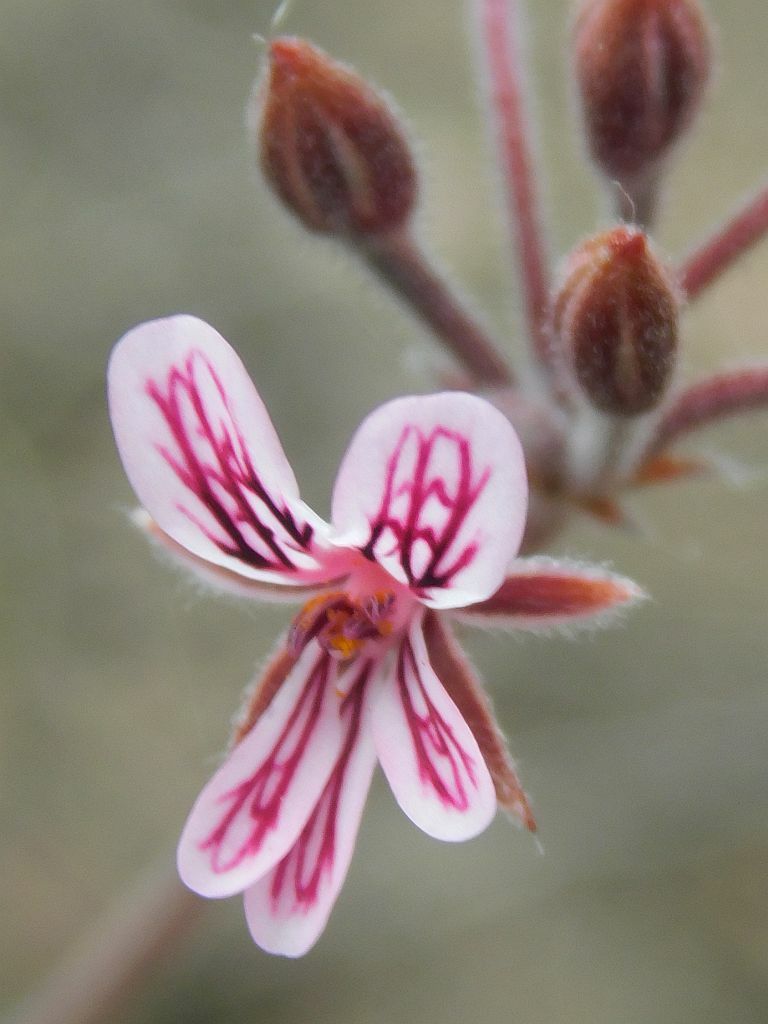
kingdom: Plantae
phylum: Tracheophyta
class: Magnoliopsida
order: Geraniales
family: Geraniaceae
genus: Pelargonium
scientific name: Pelargonium proliferum
